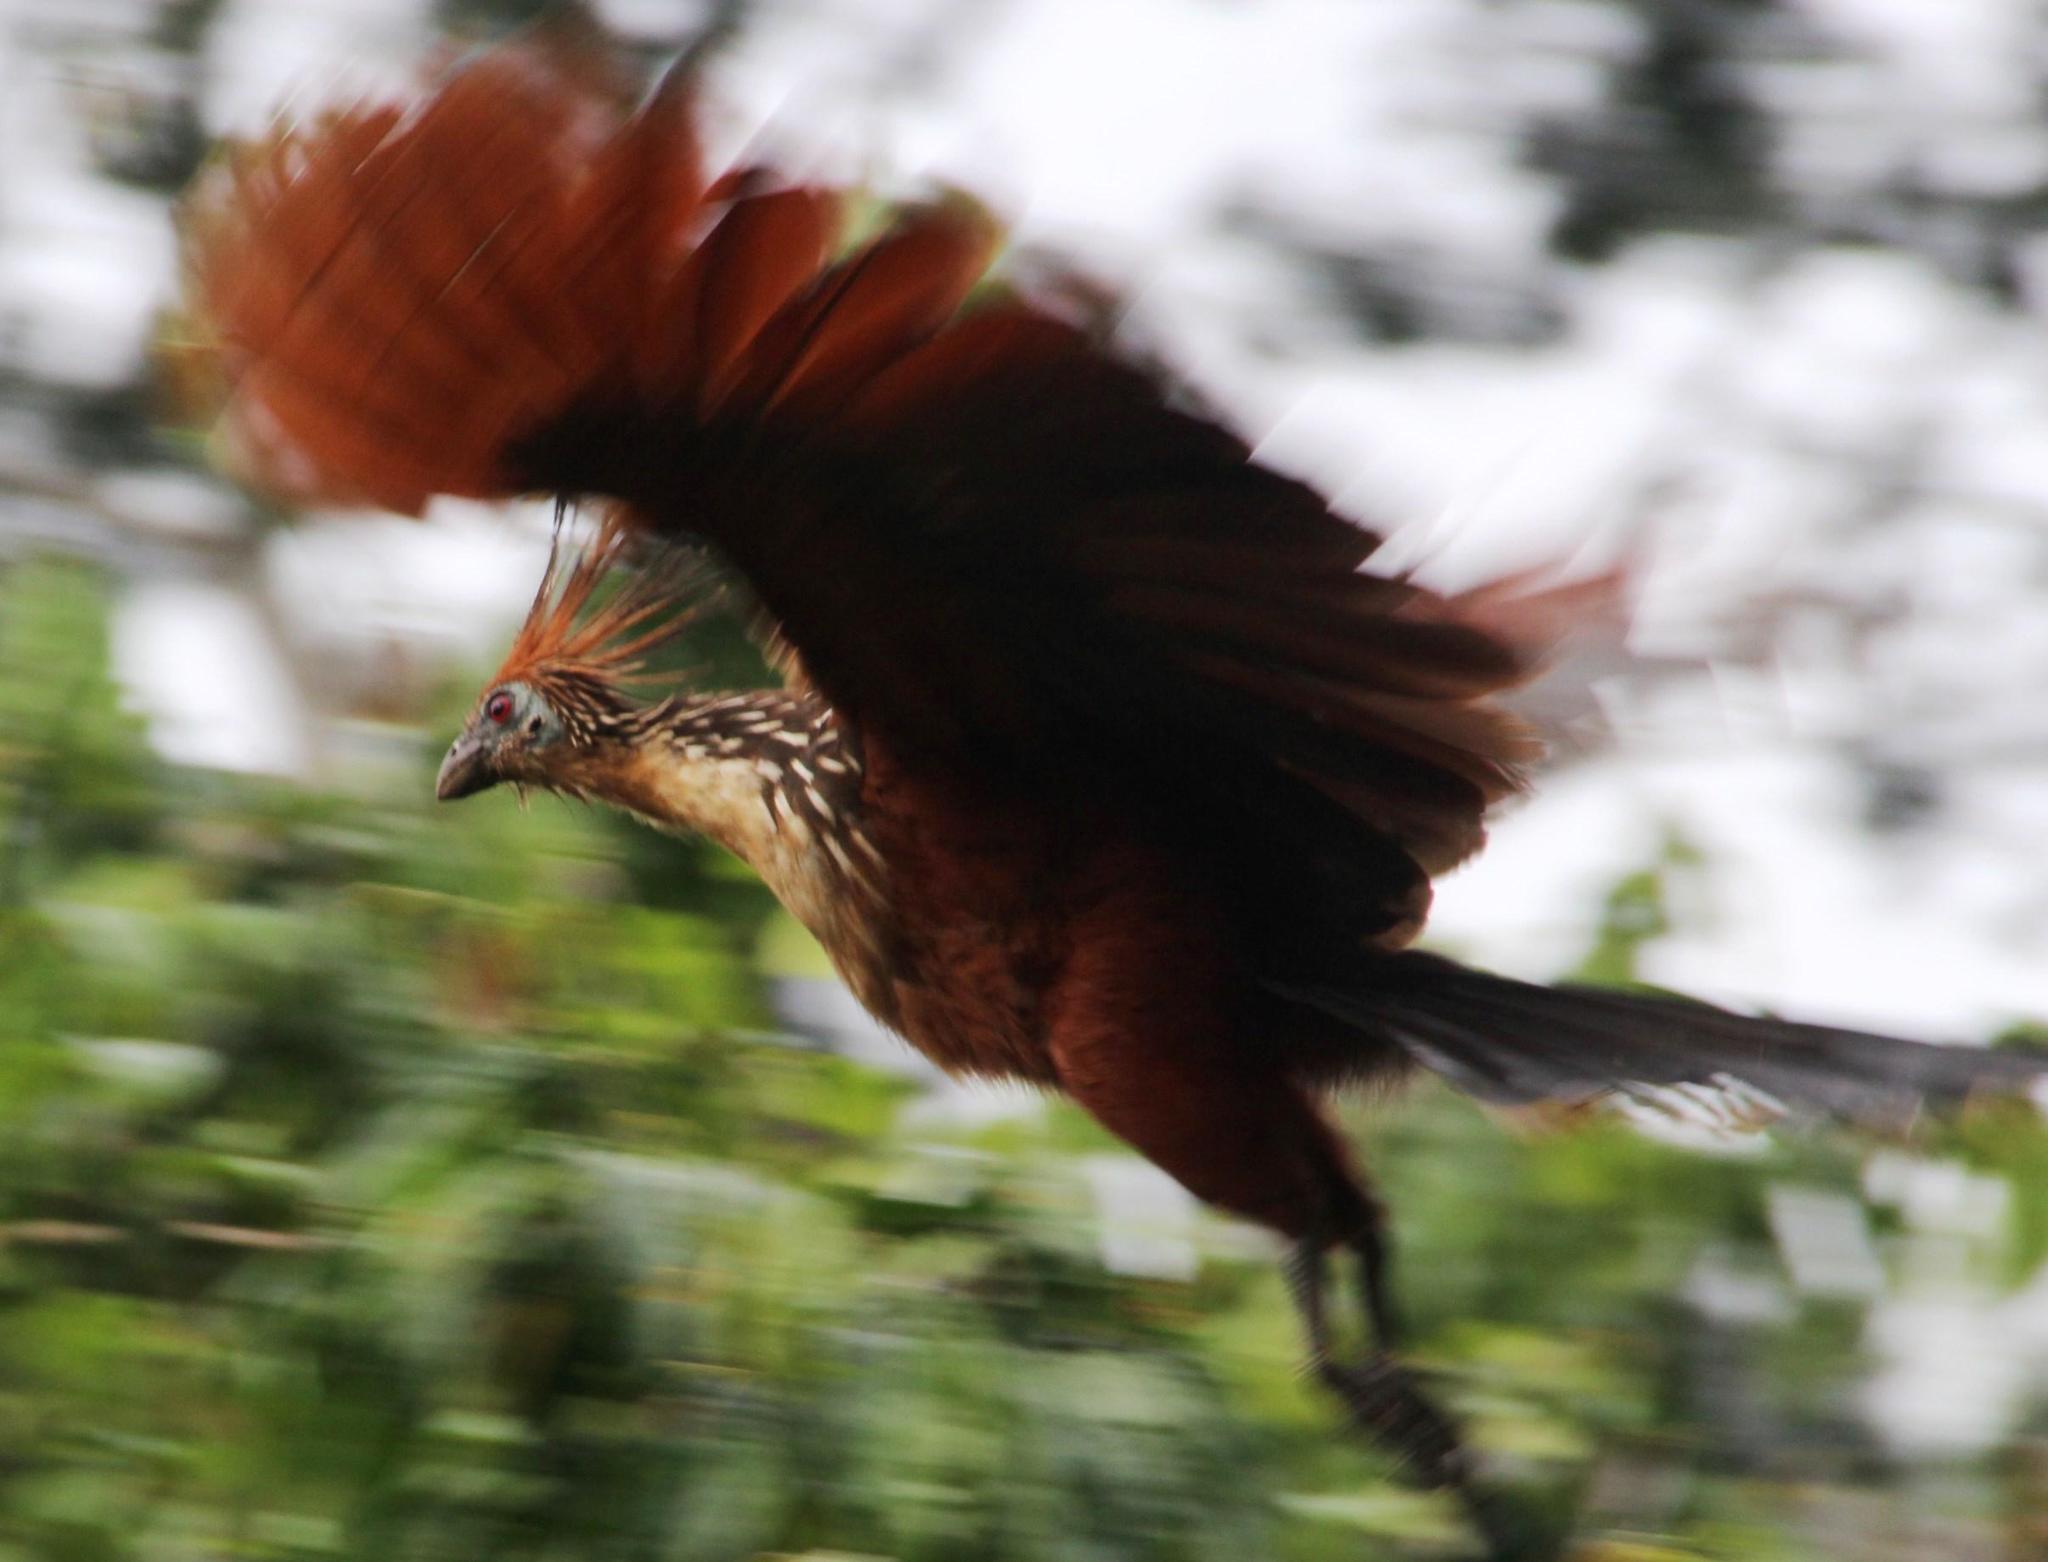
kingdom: Animalia
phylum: Chordata
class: Aves
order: Opisthocomiformes
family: Opisthocomidae
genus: Opisthocomus
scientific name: Opisthocomus hoazin
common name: Hoatzin
